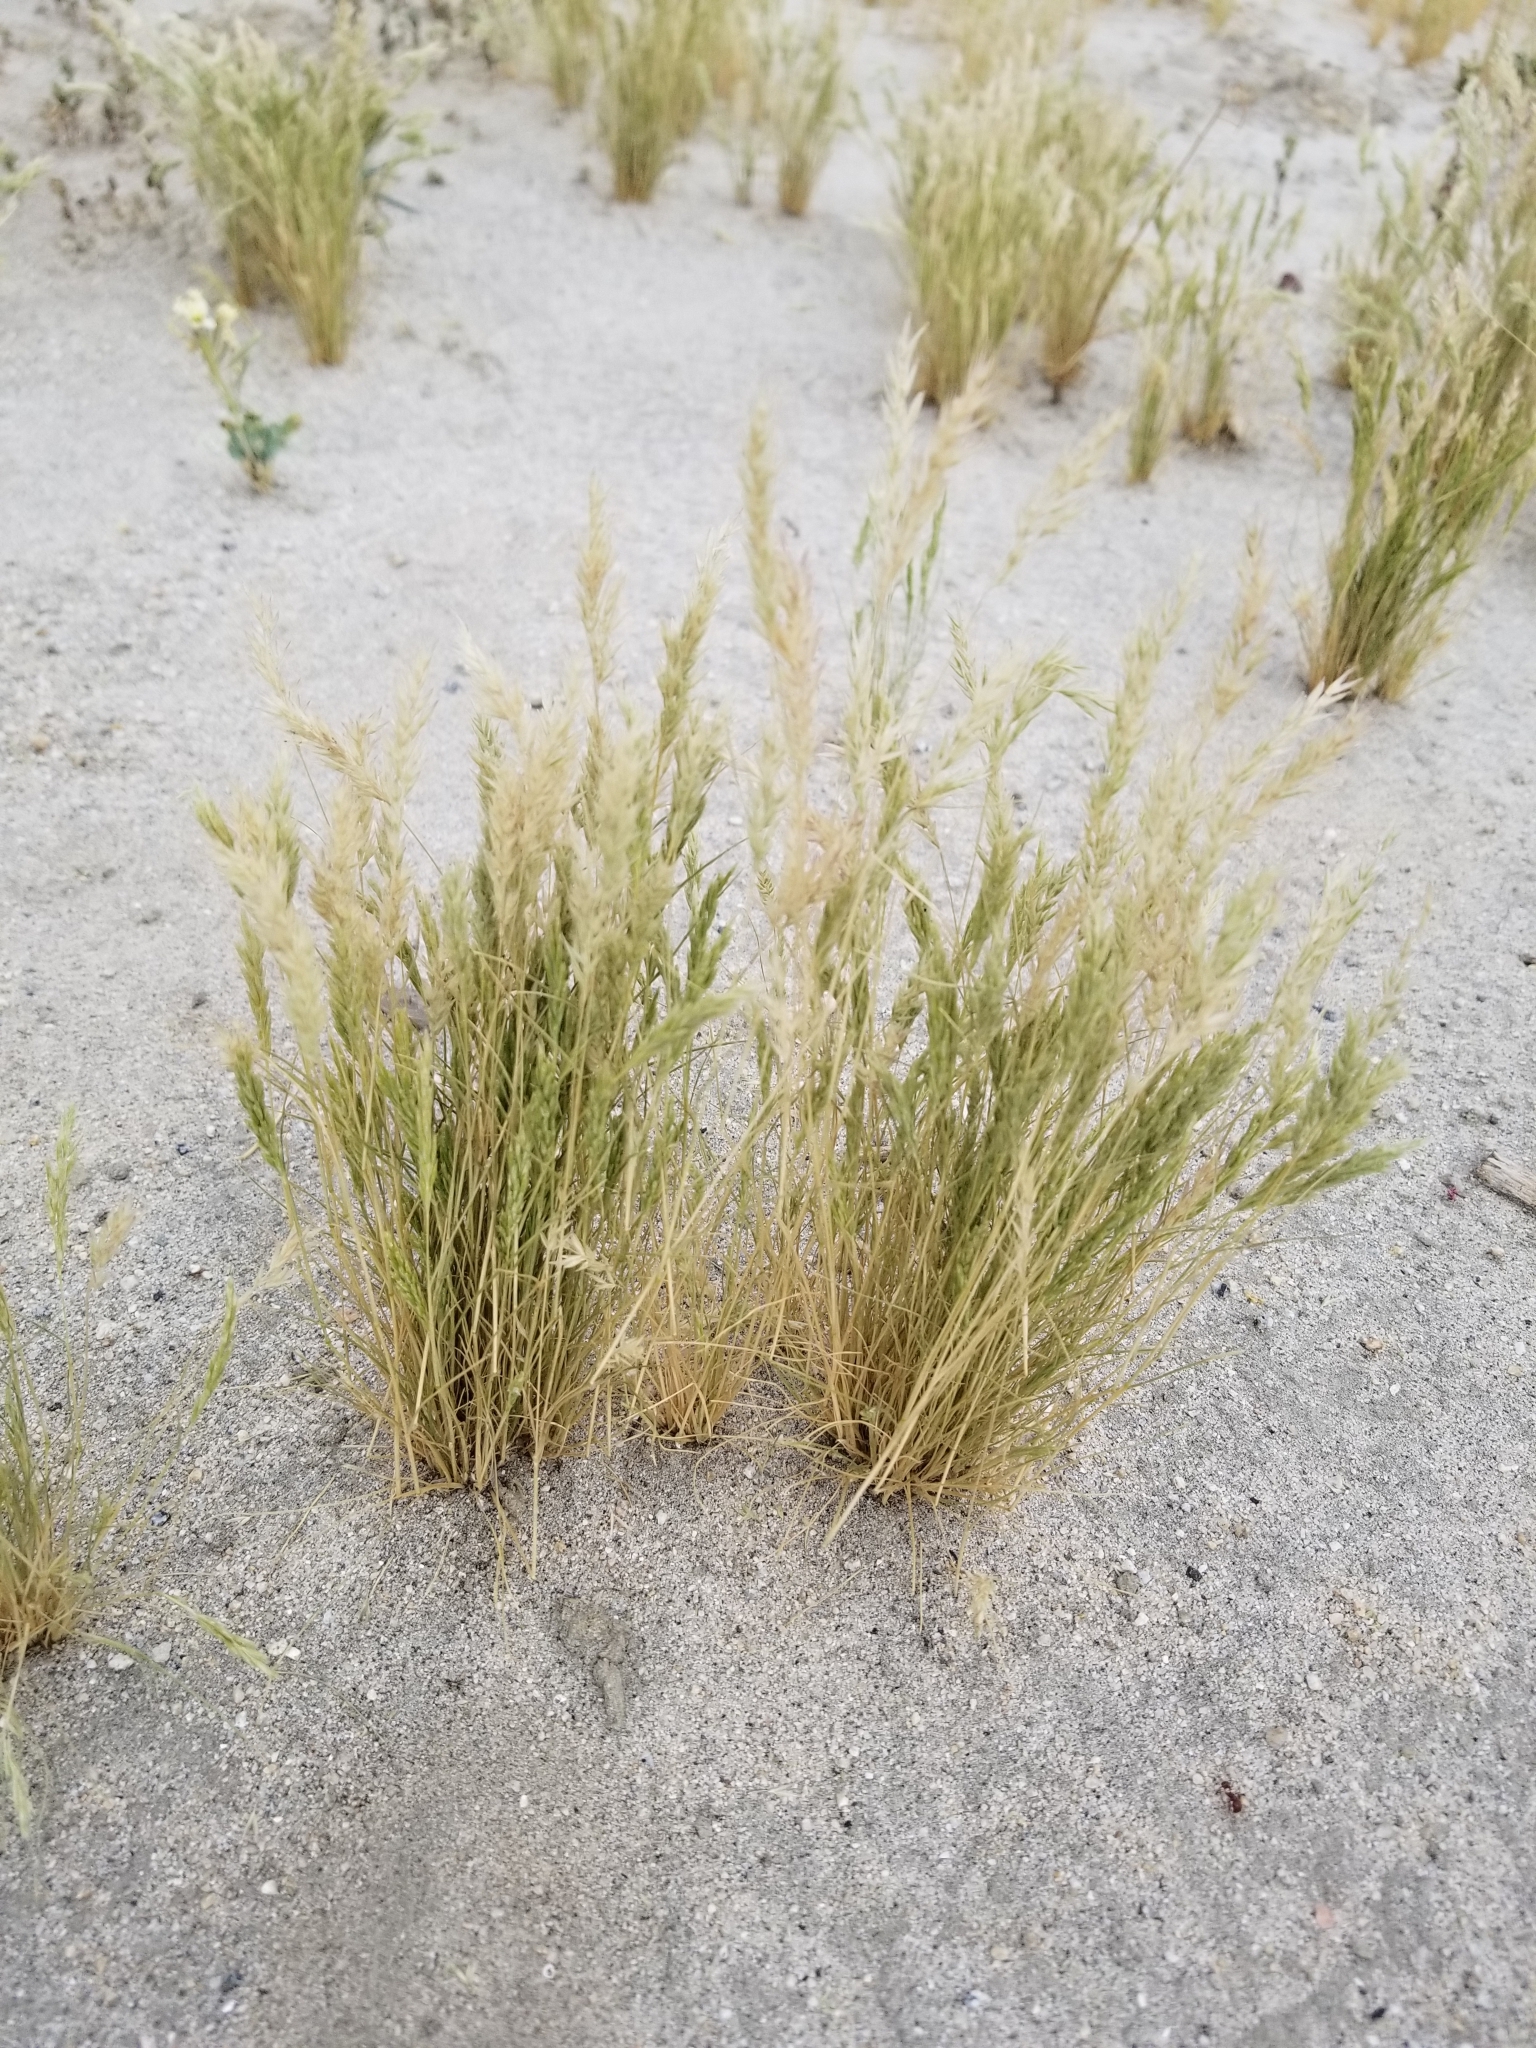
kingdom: Plantae
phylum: Tracheophyta
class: Liliopsida
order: Poales
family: Poaceae
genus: Schismus
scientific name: Schismus barbatus
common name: Kelch-grass
